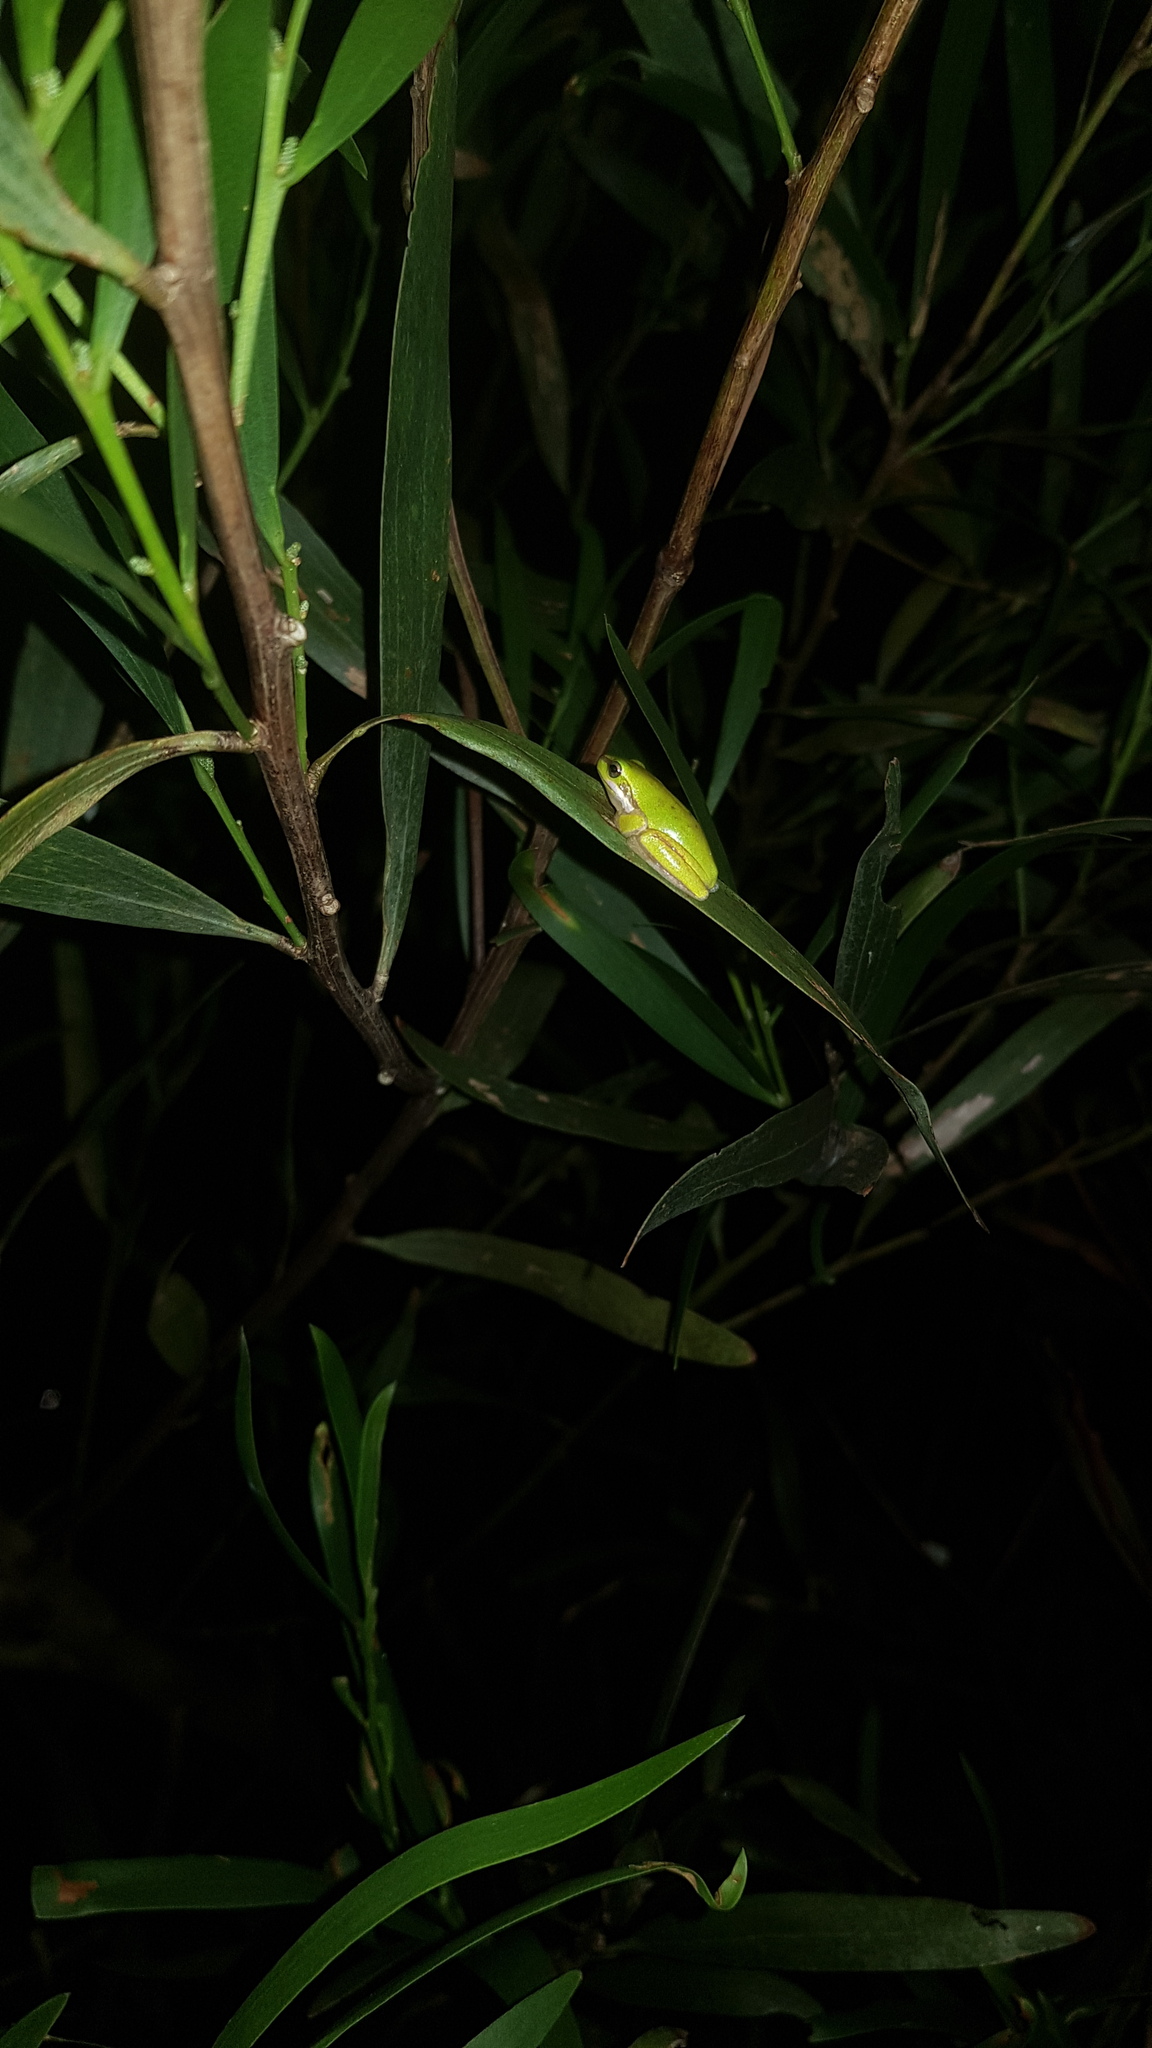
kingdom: Animalia
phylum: Chordata
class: Amphibia
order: Anura
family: Pelodryadidae
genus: Litoria
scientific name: Litoria fallax
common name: Eastern dwarf treefrog
